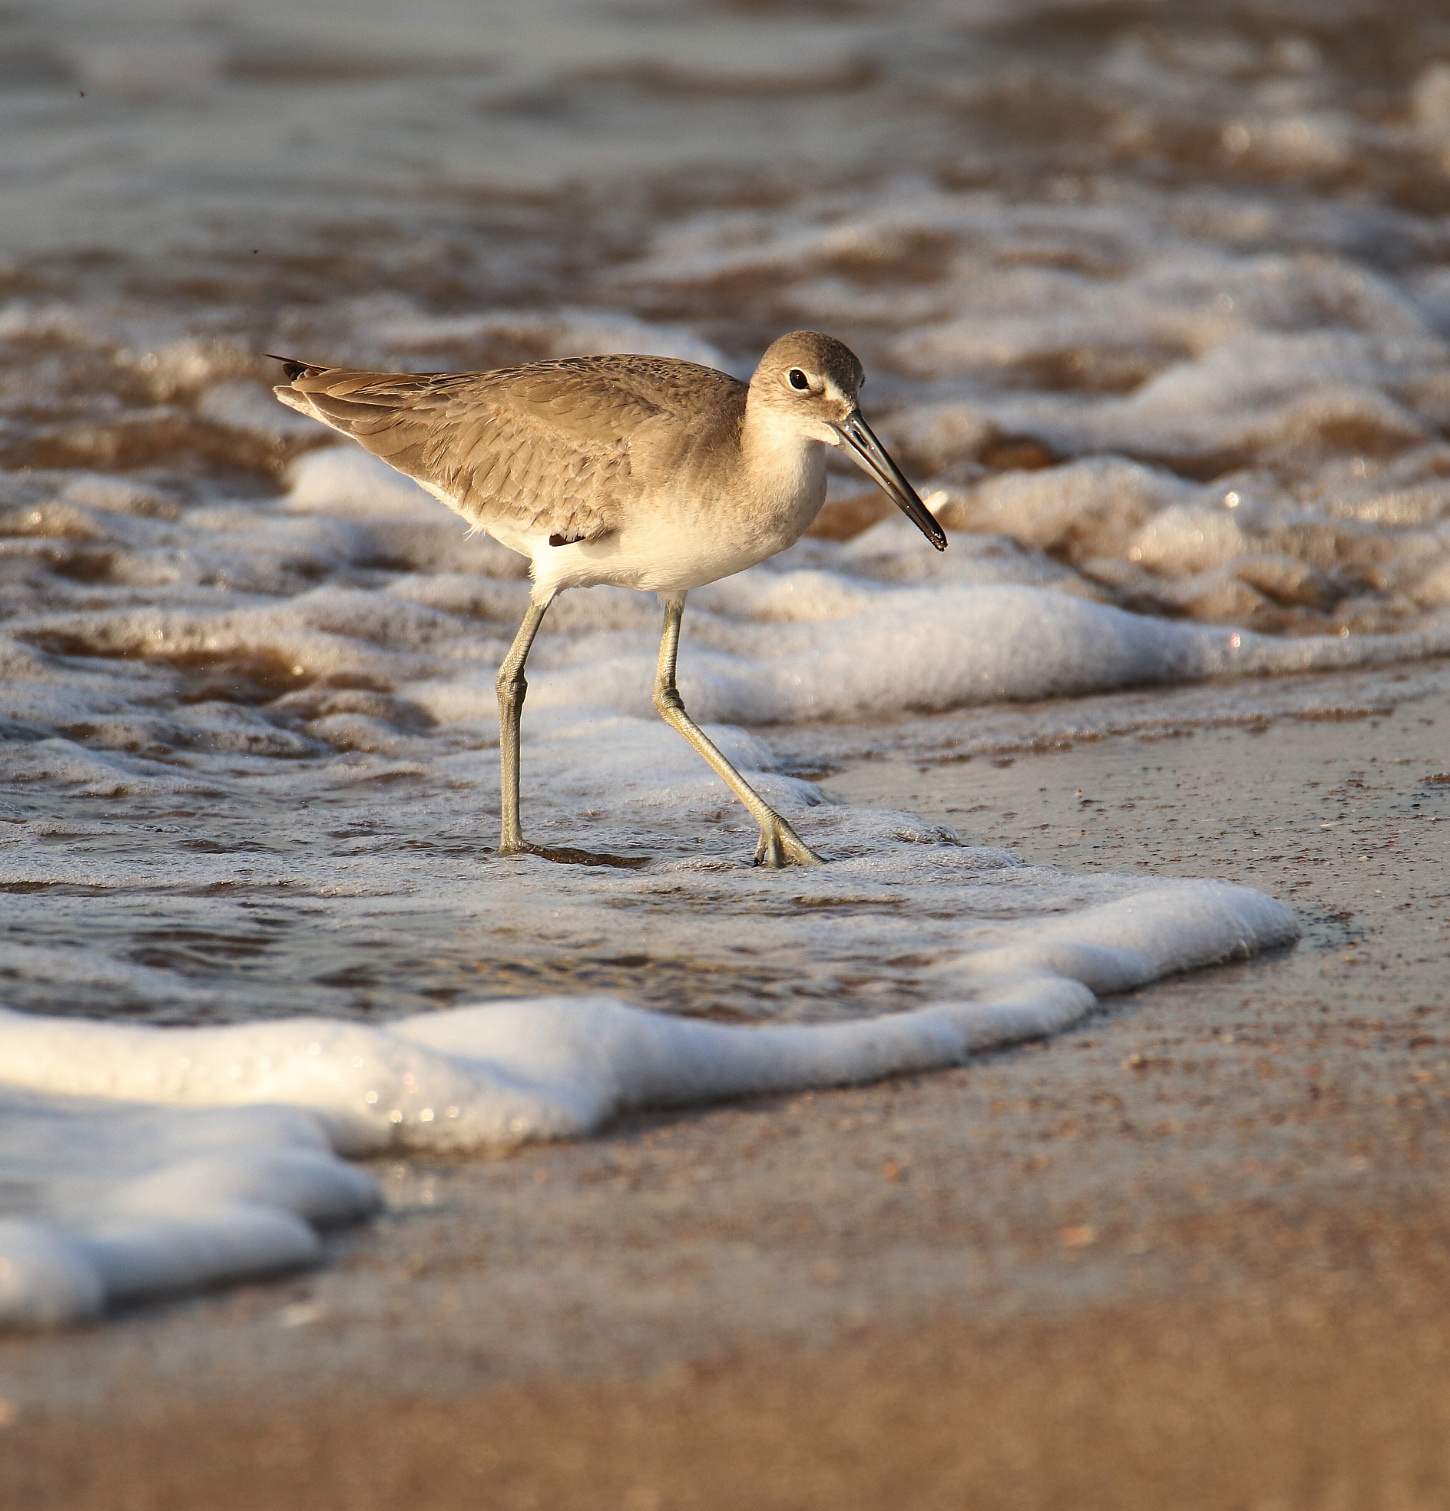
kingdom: Animalia
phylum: Chordata
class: Aves
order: Charadriiformes
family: Scolopacidae
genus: Tringa
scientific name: Tringa semipalmata
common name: Willet
